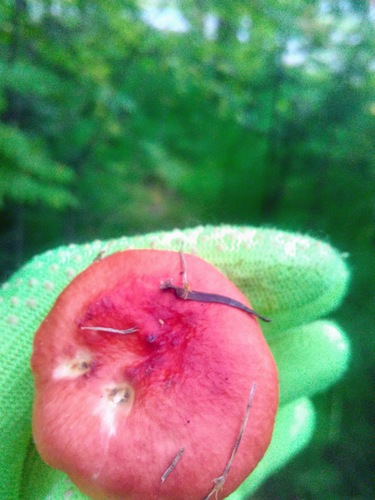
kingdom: Fungi
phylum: Basidiomycota
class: Agaricomycetes
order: Russulales
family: Russulaceae
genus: Russula
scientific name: Russula sanguinea
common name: Bloody brittlegill
